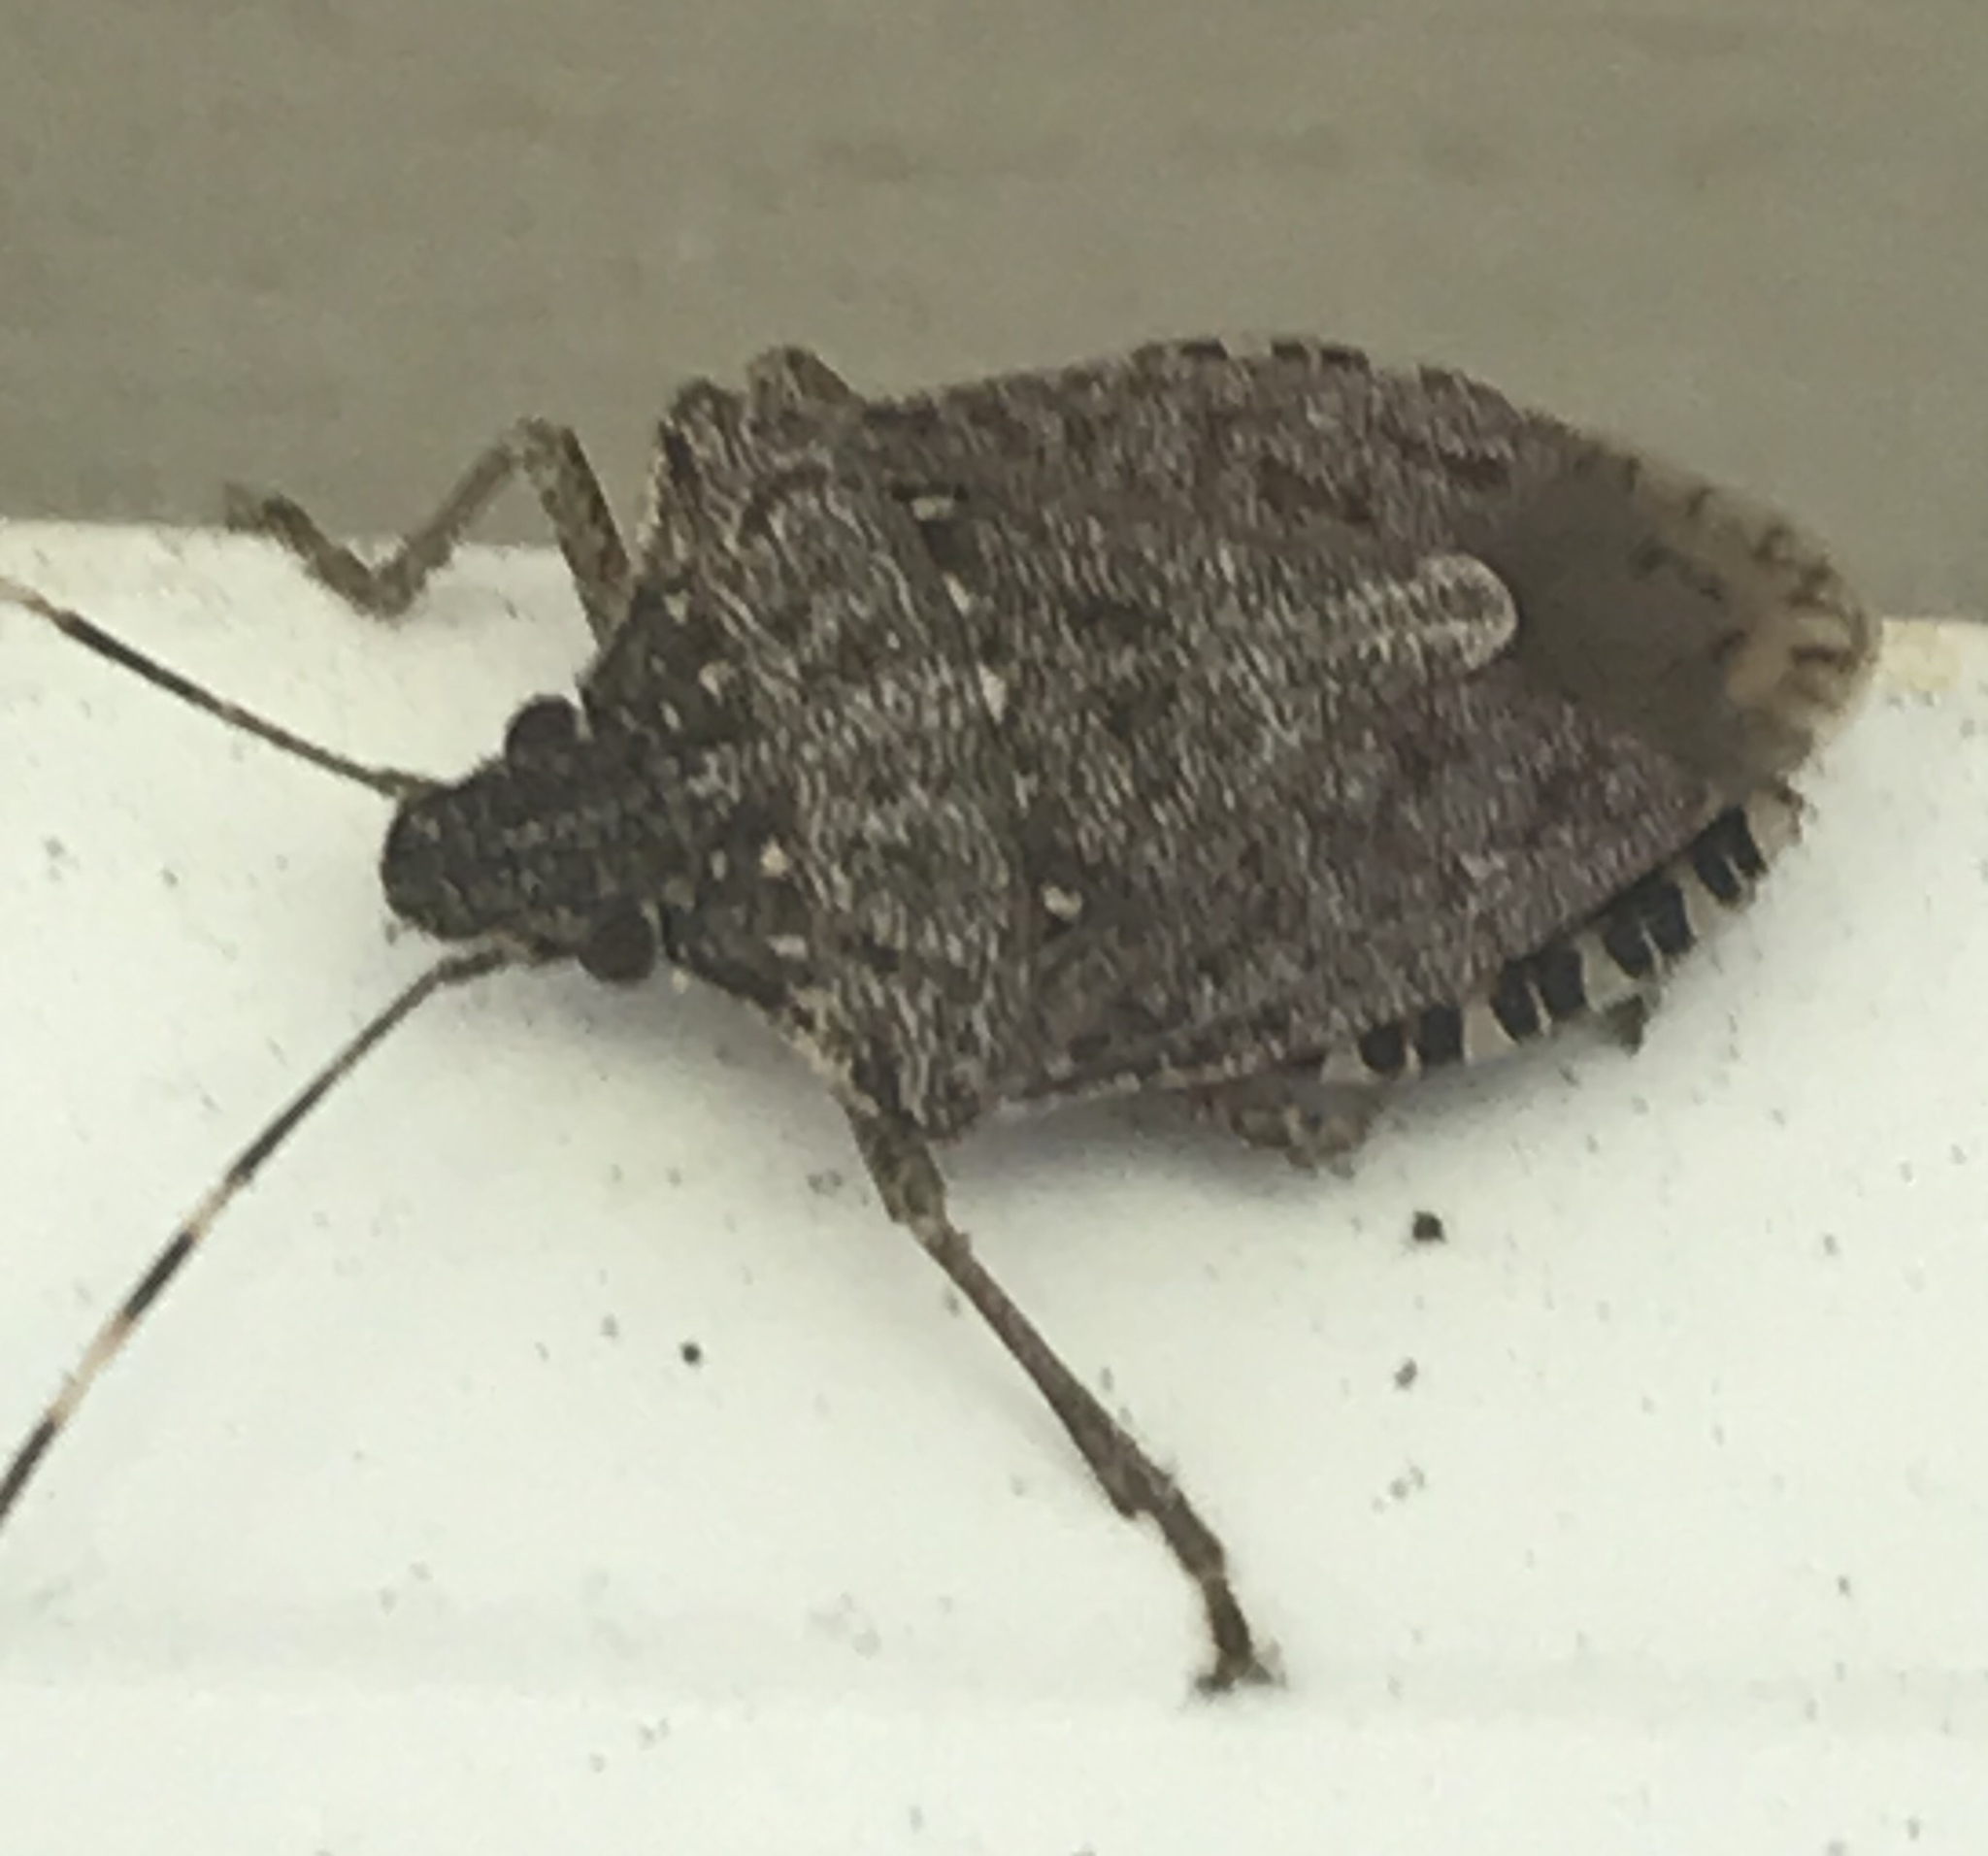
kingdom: Animalia
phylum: Arthropoda
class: Insecta
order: Hemiptera
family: Pentatomidae
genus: Halyomorpha
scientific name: Halyomorpha halys
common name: Brown marmorated stink bug
